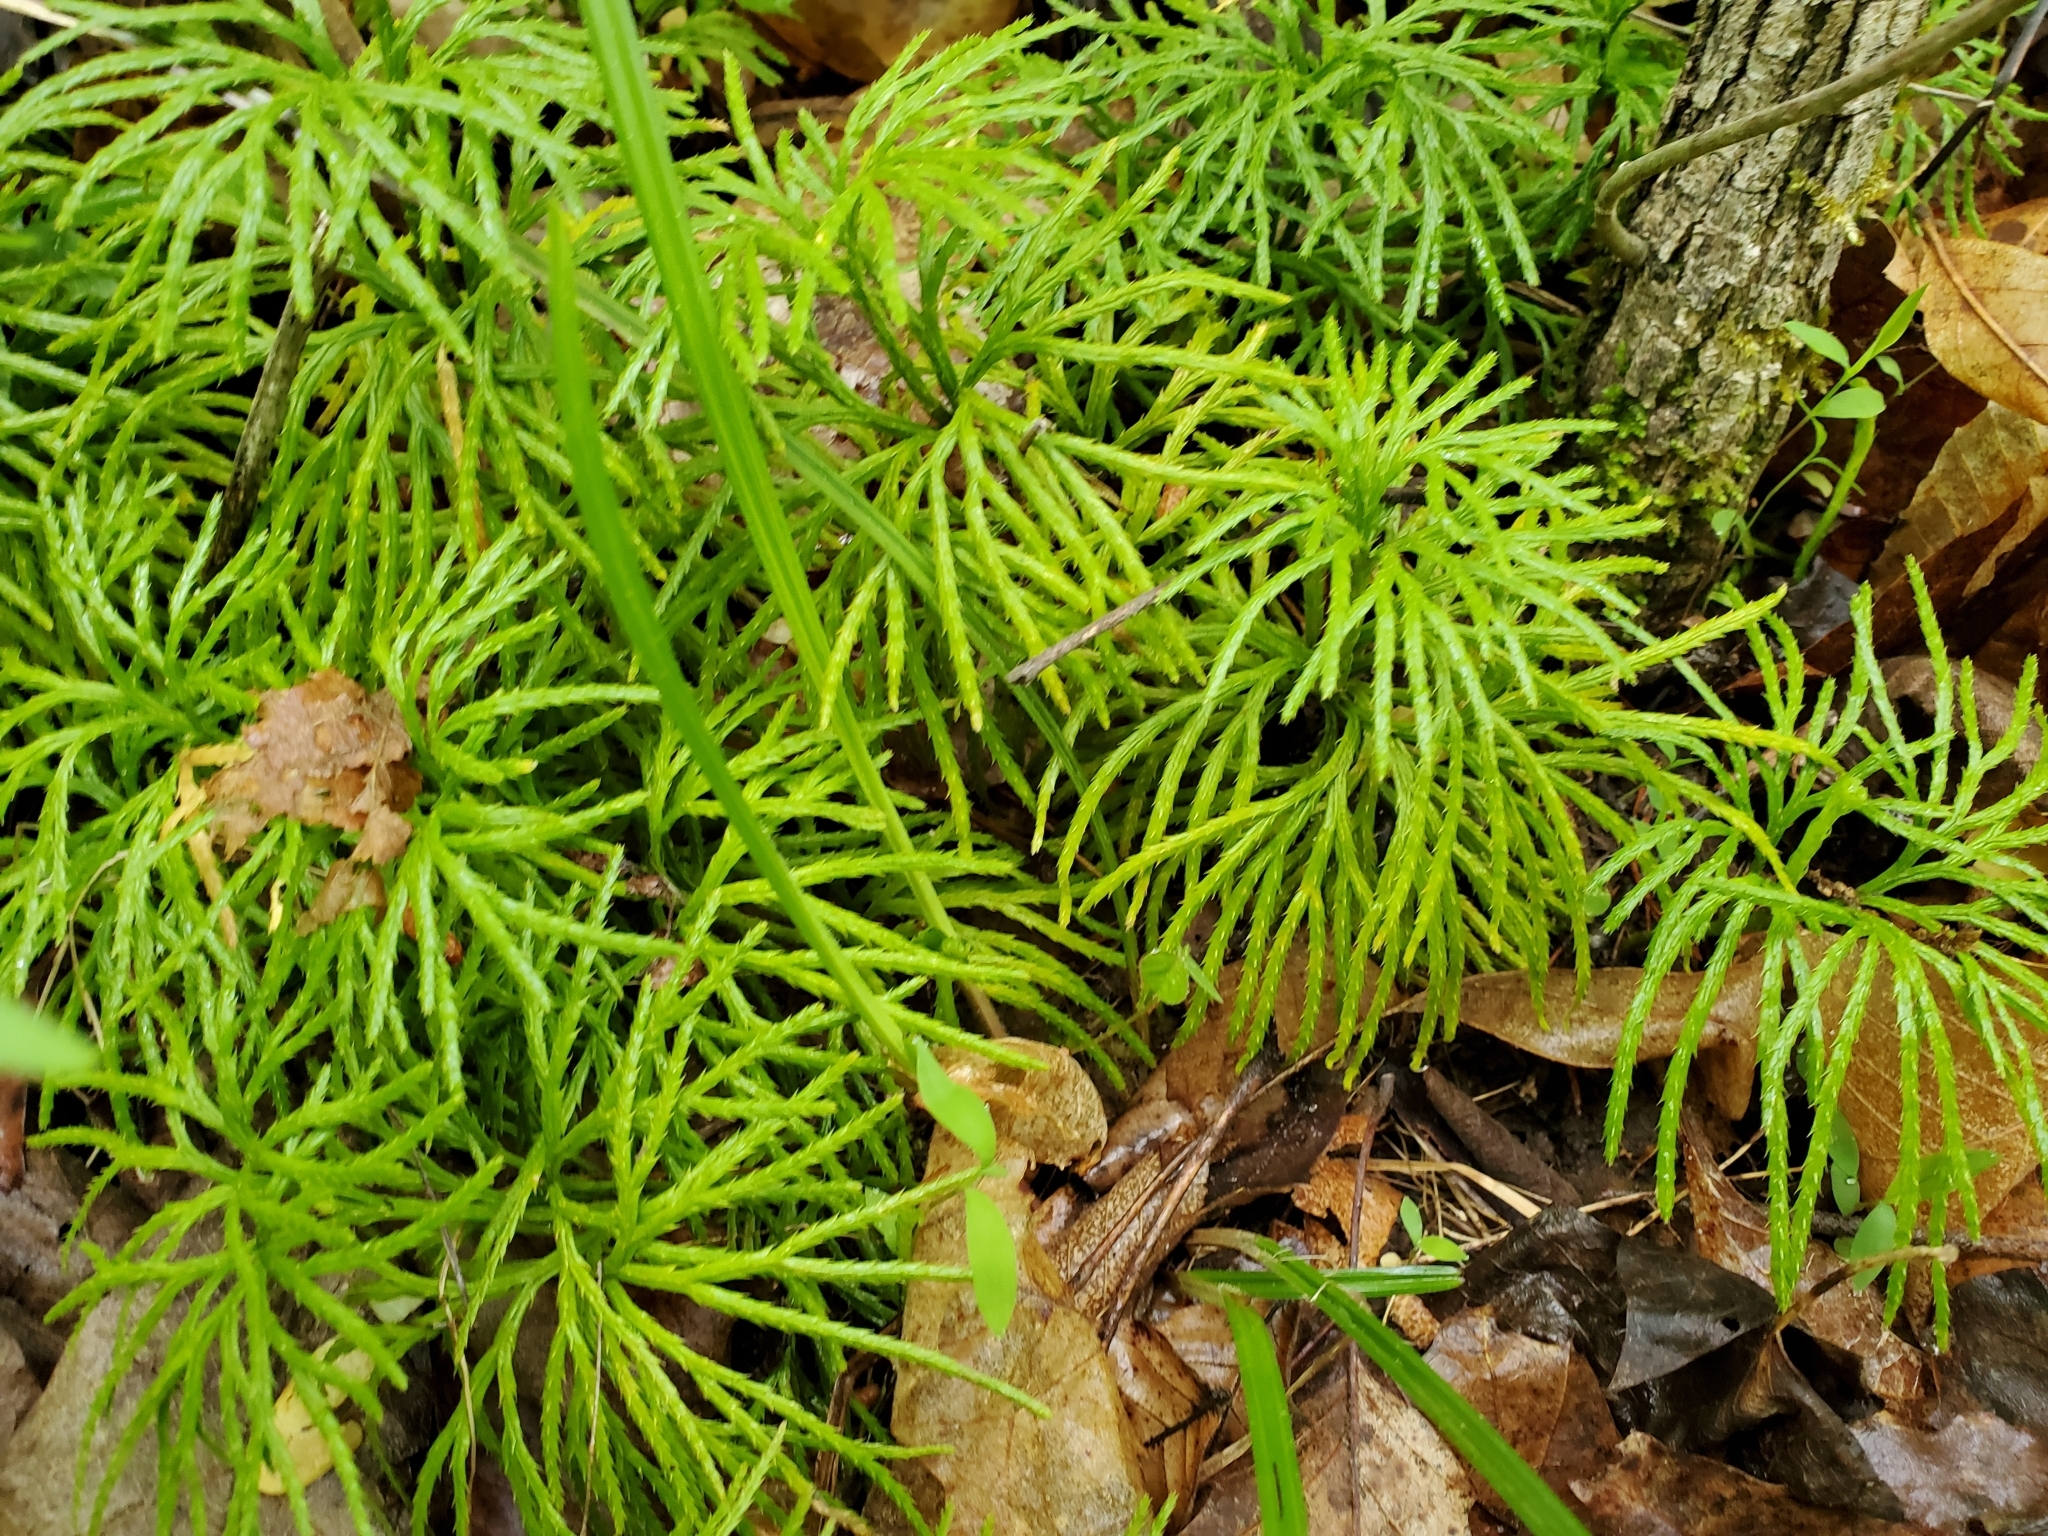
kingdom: Plantae
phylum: Tracheophyta
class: Lycopodiopsida
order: Lycopodiales
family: Lycopodiaceae
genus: Diphasiastrum
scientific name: Diphasiastrum digitatum
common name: Southern running-pine
